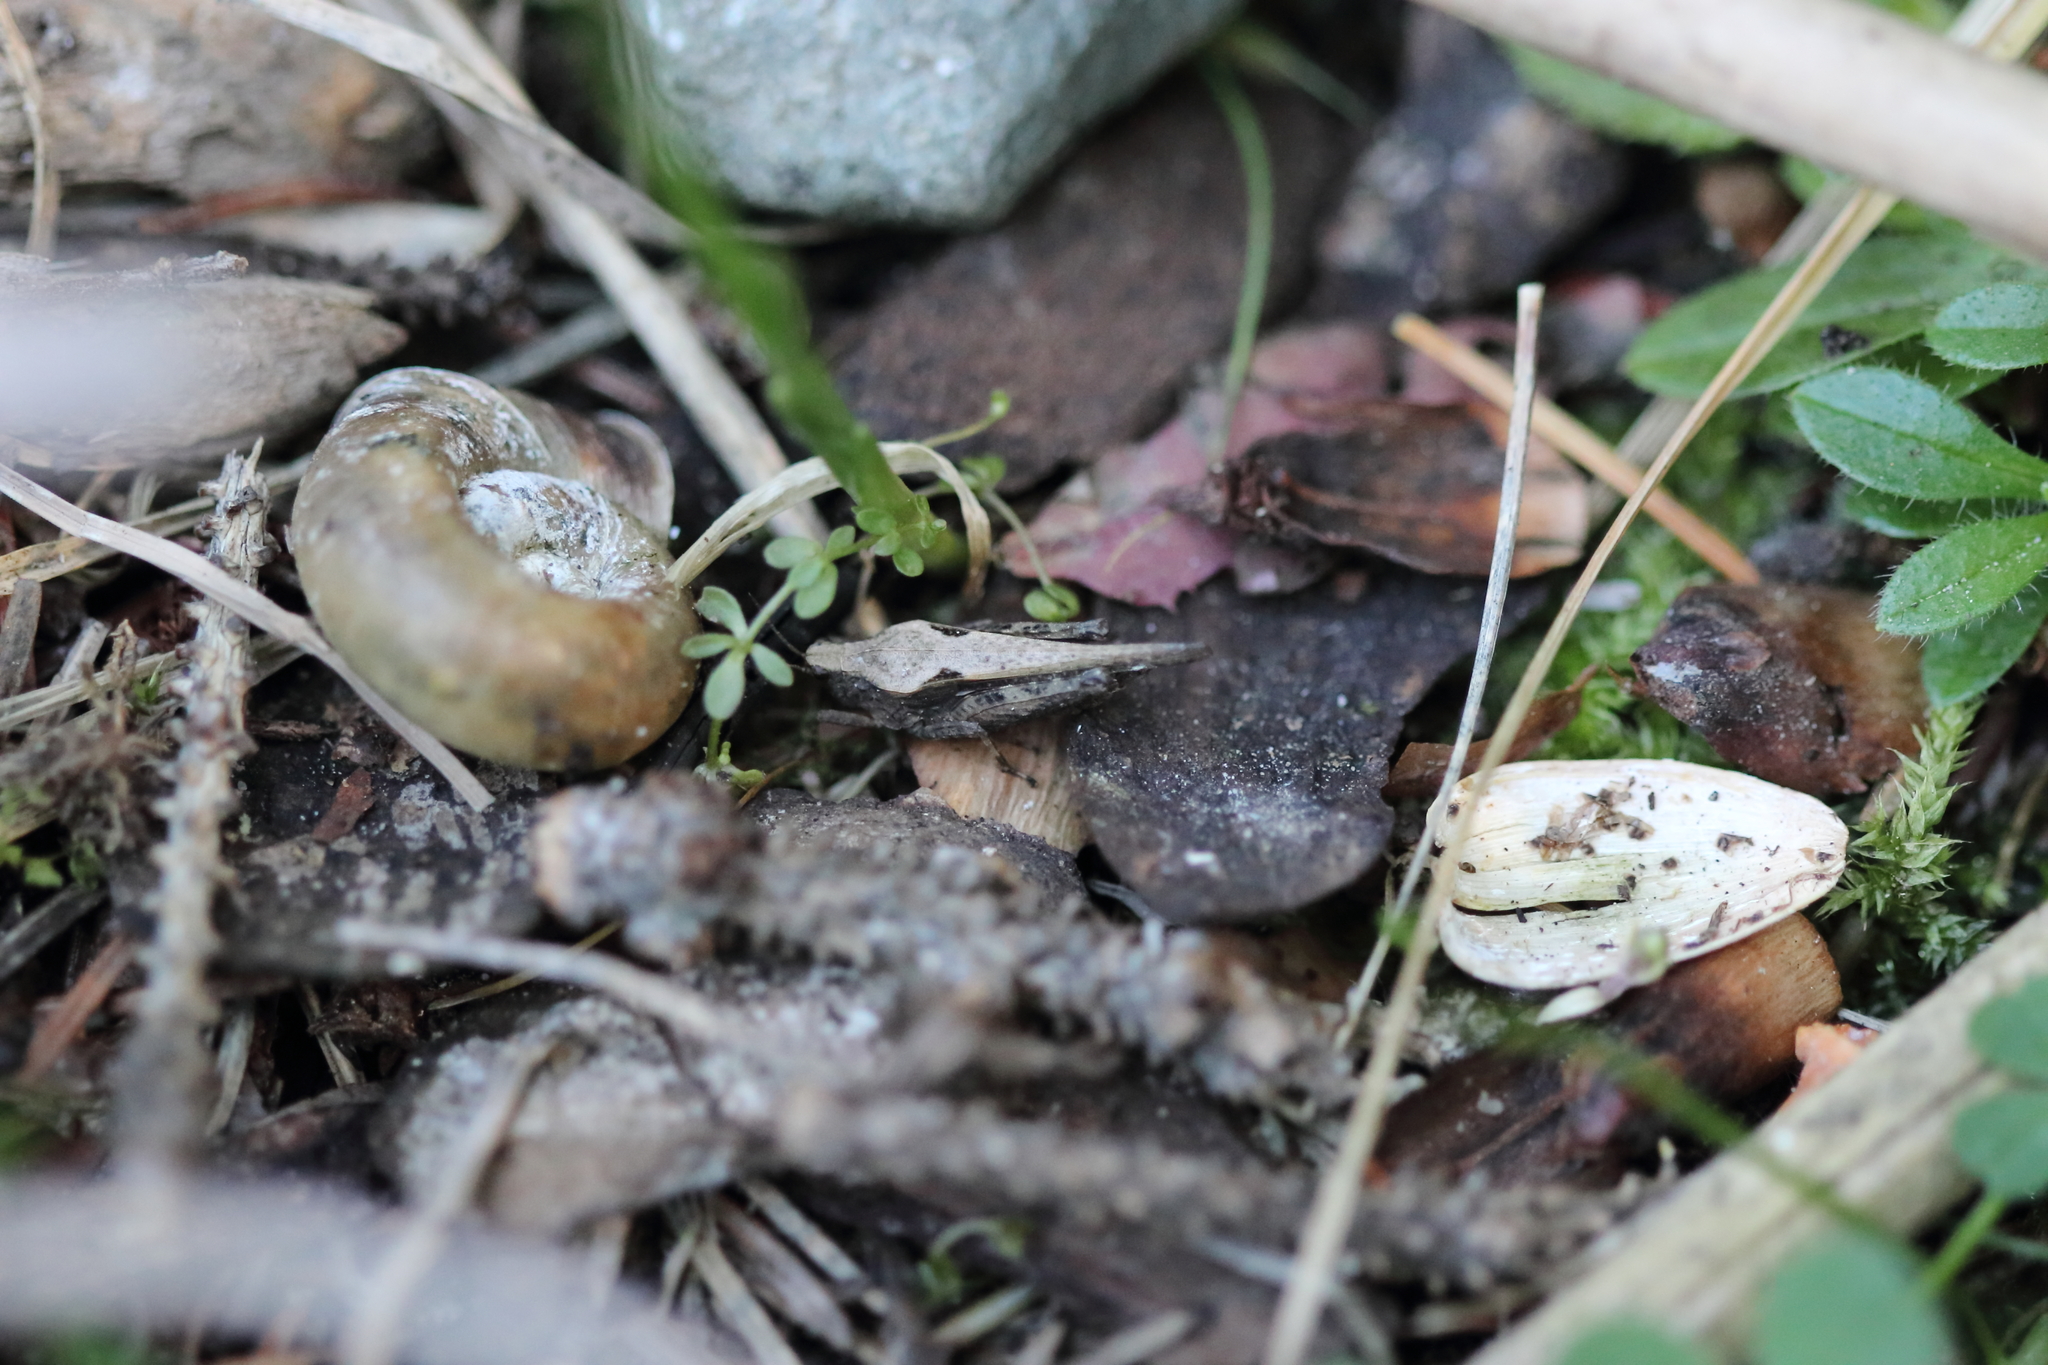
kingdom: Animalia
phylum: Arthropoda
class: Insecta
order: Orthoptera
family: Tetrigidae
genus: Tetrix
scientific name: Tetrix subulata
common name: Slender ground-hopper
